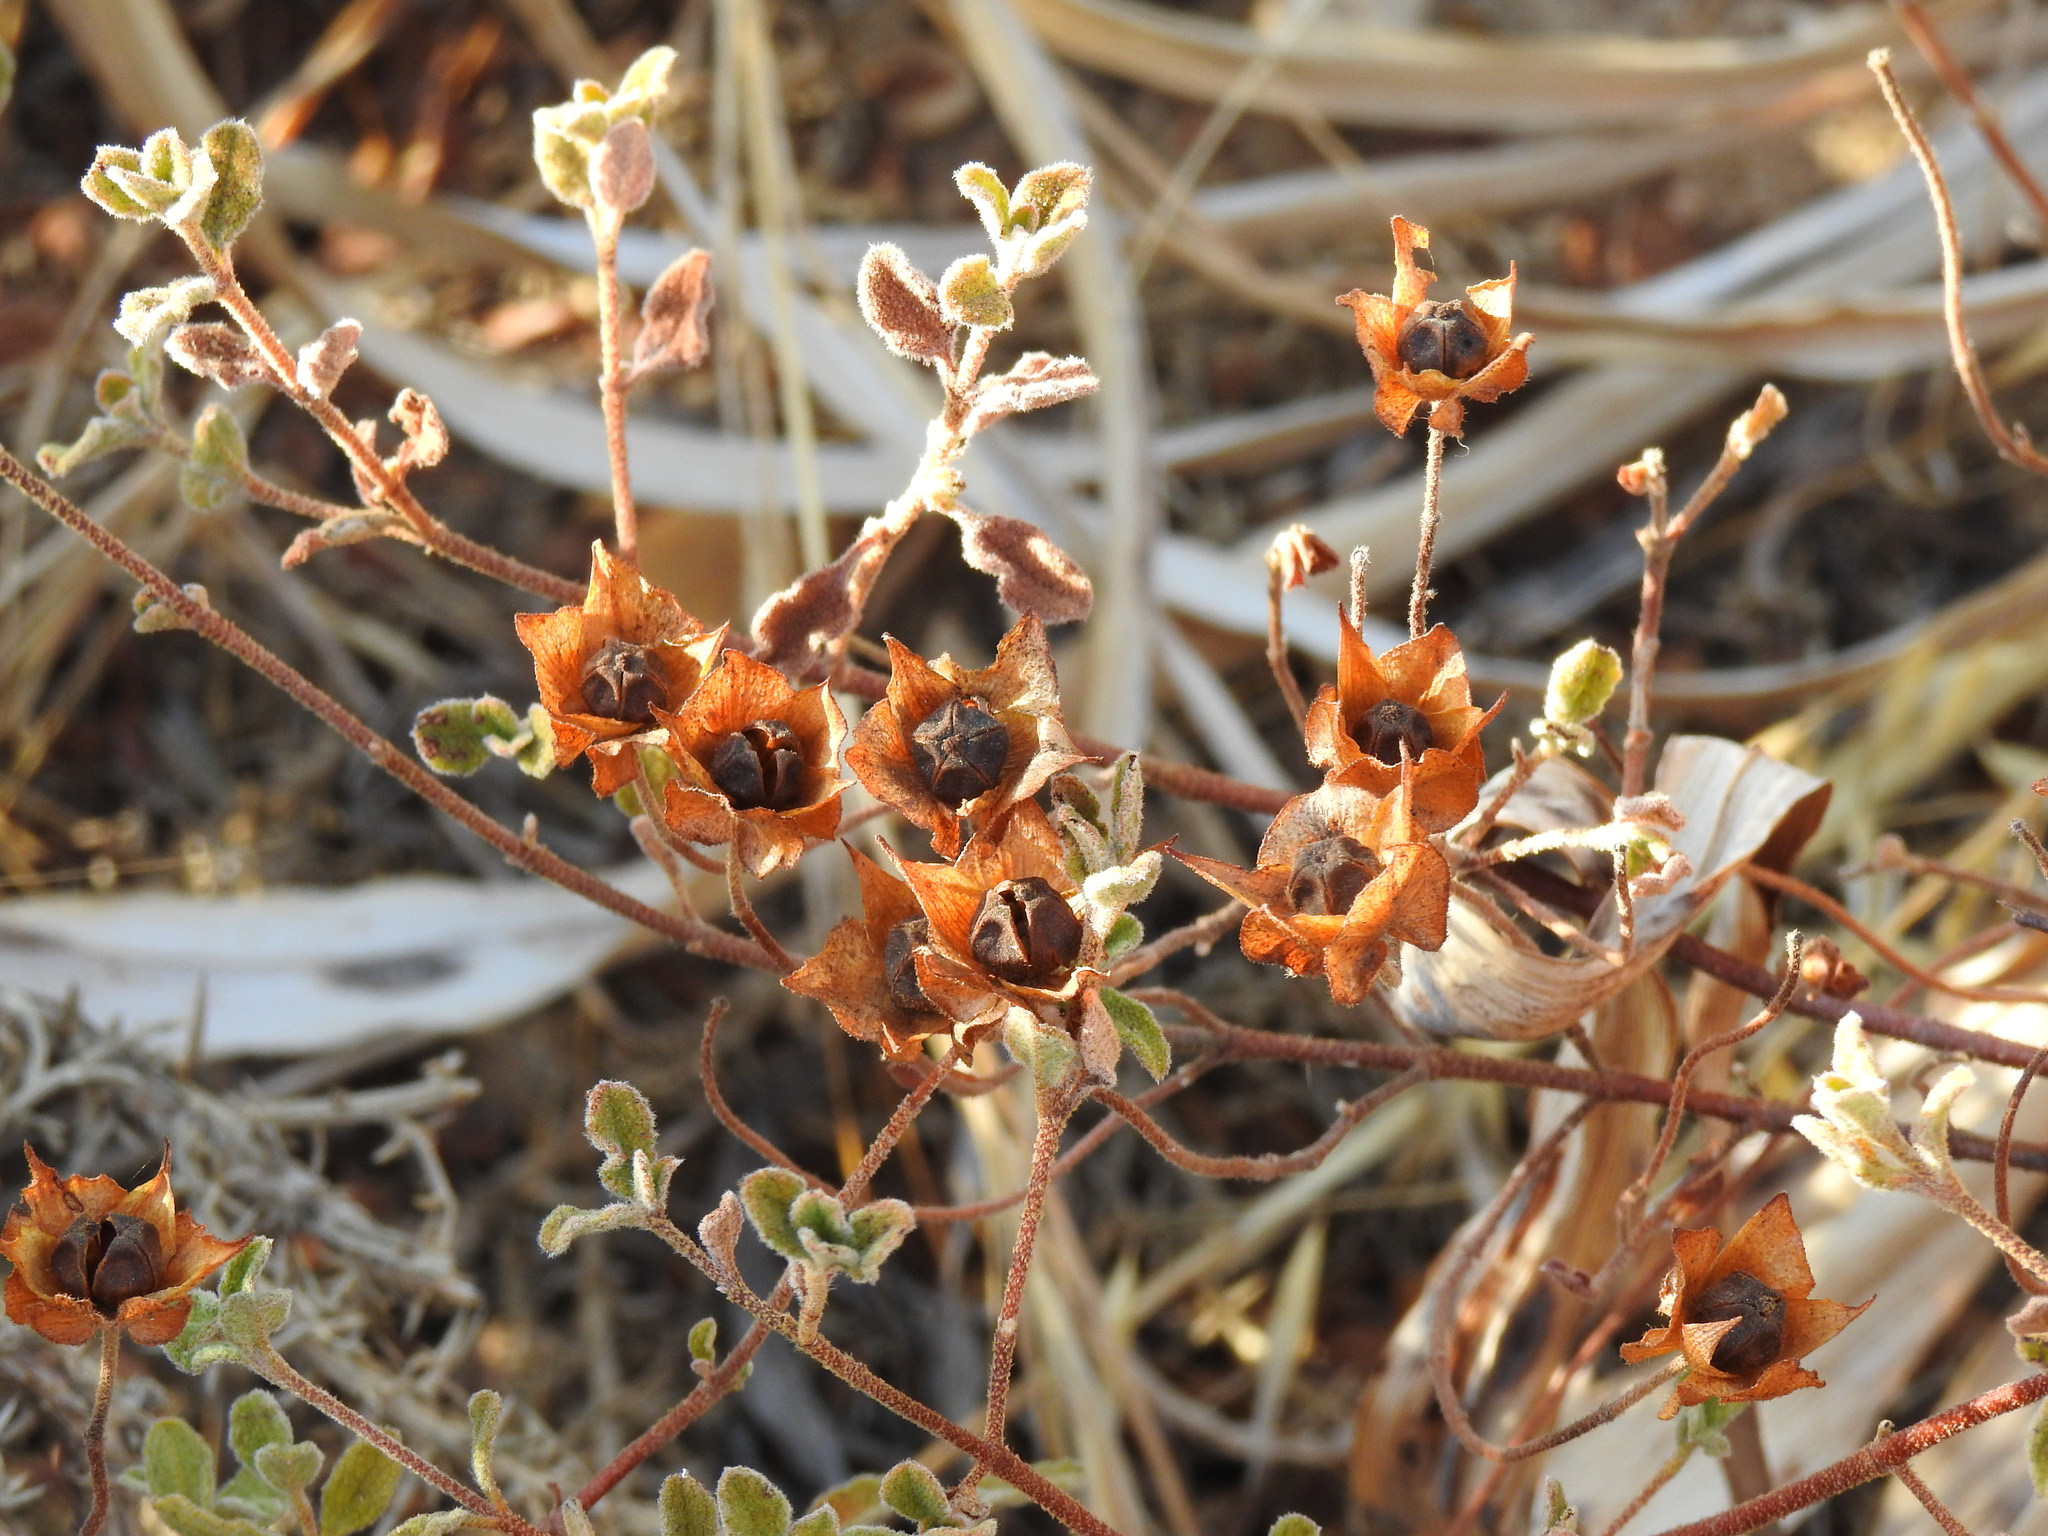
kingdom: Plantae
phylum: Tracheophyta
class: Magnoliopsida
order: Malvales
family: Cistaceae
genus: Cistus
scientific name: Cistus salviifolius
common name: Salvia cistus
